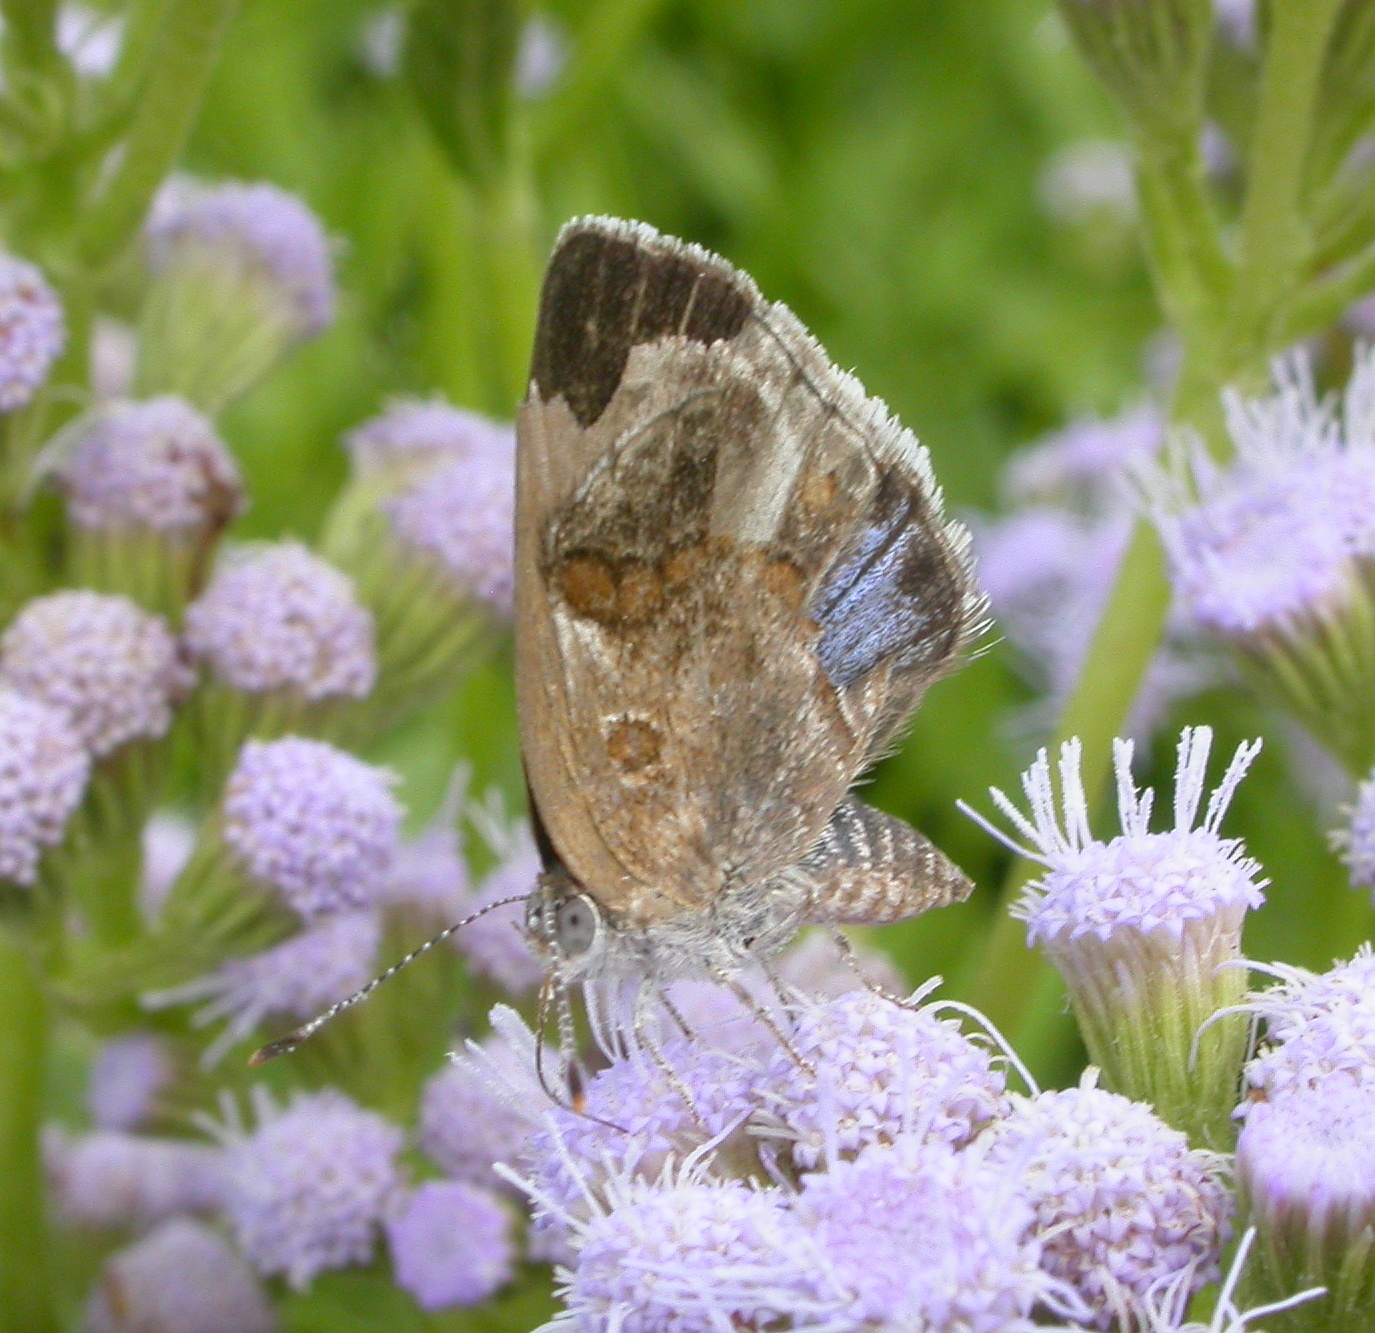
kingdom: Animalia
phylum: Arthropoda
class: Insecta
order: Lepidoptera
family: Lycaenidae
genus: Strymon
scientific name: Strymon bazochii
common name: Lantana scrub-hairstreak
